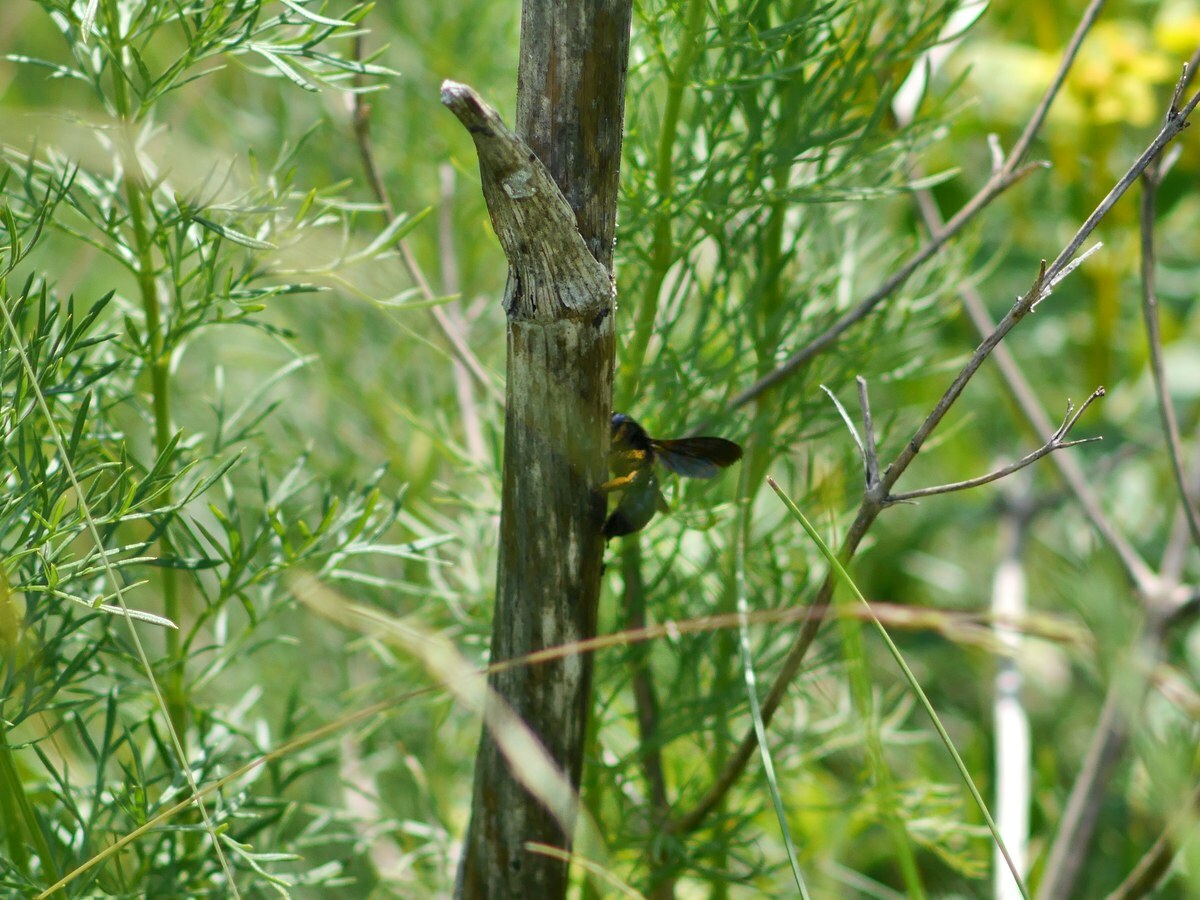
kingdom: Animalia
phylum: Arthropoda
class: Insecta
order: Hymenoptera
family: Apidae
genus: Xylocopa
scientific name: Xylocopa iris
